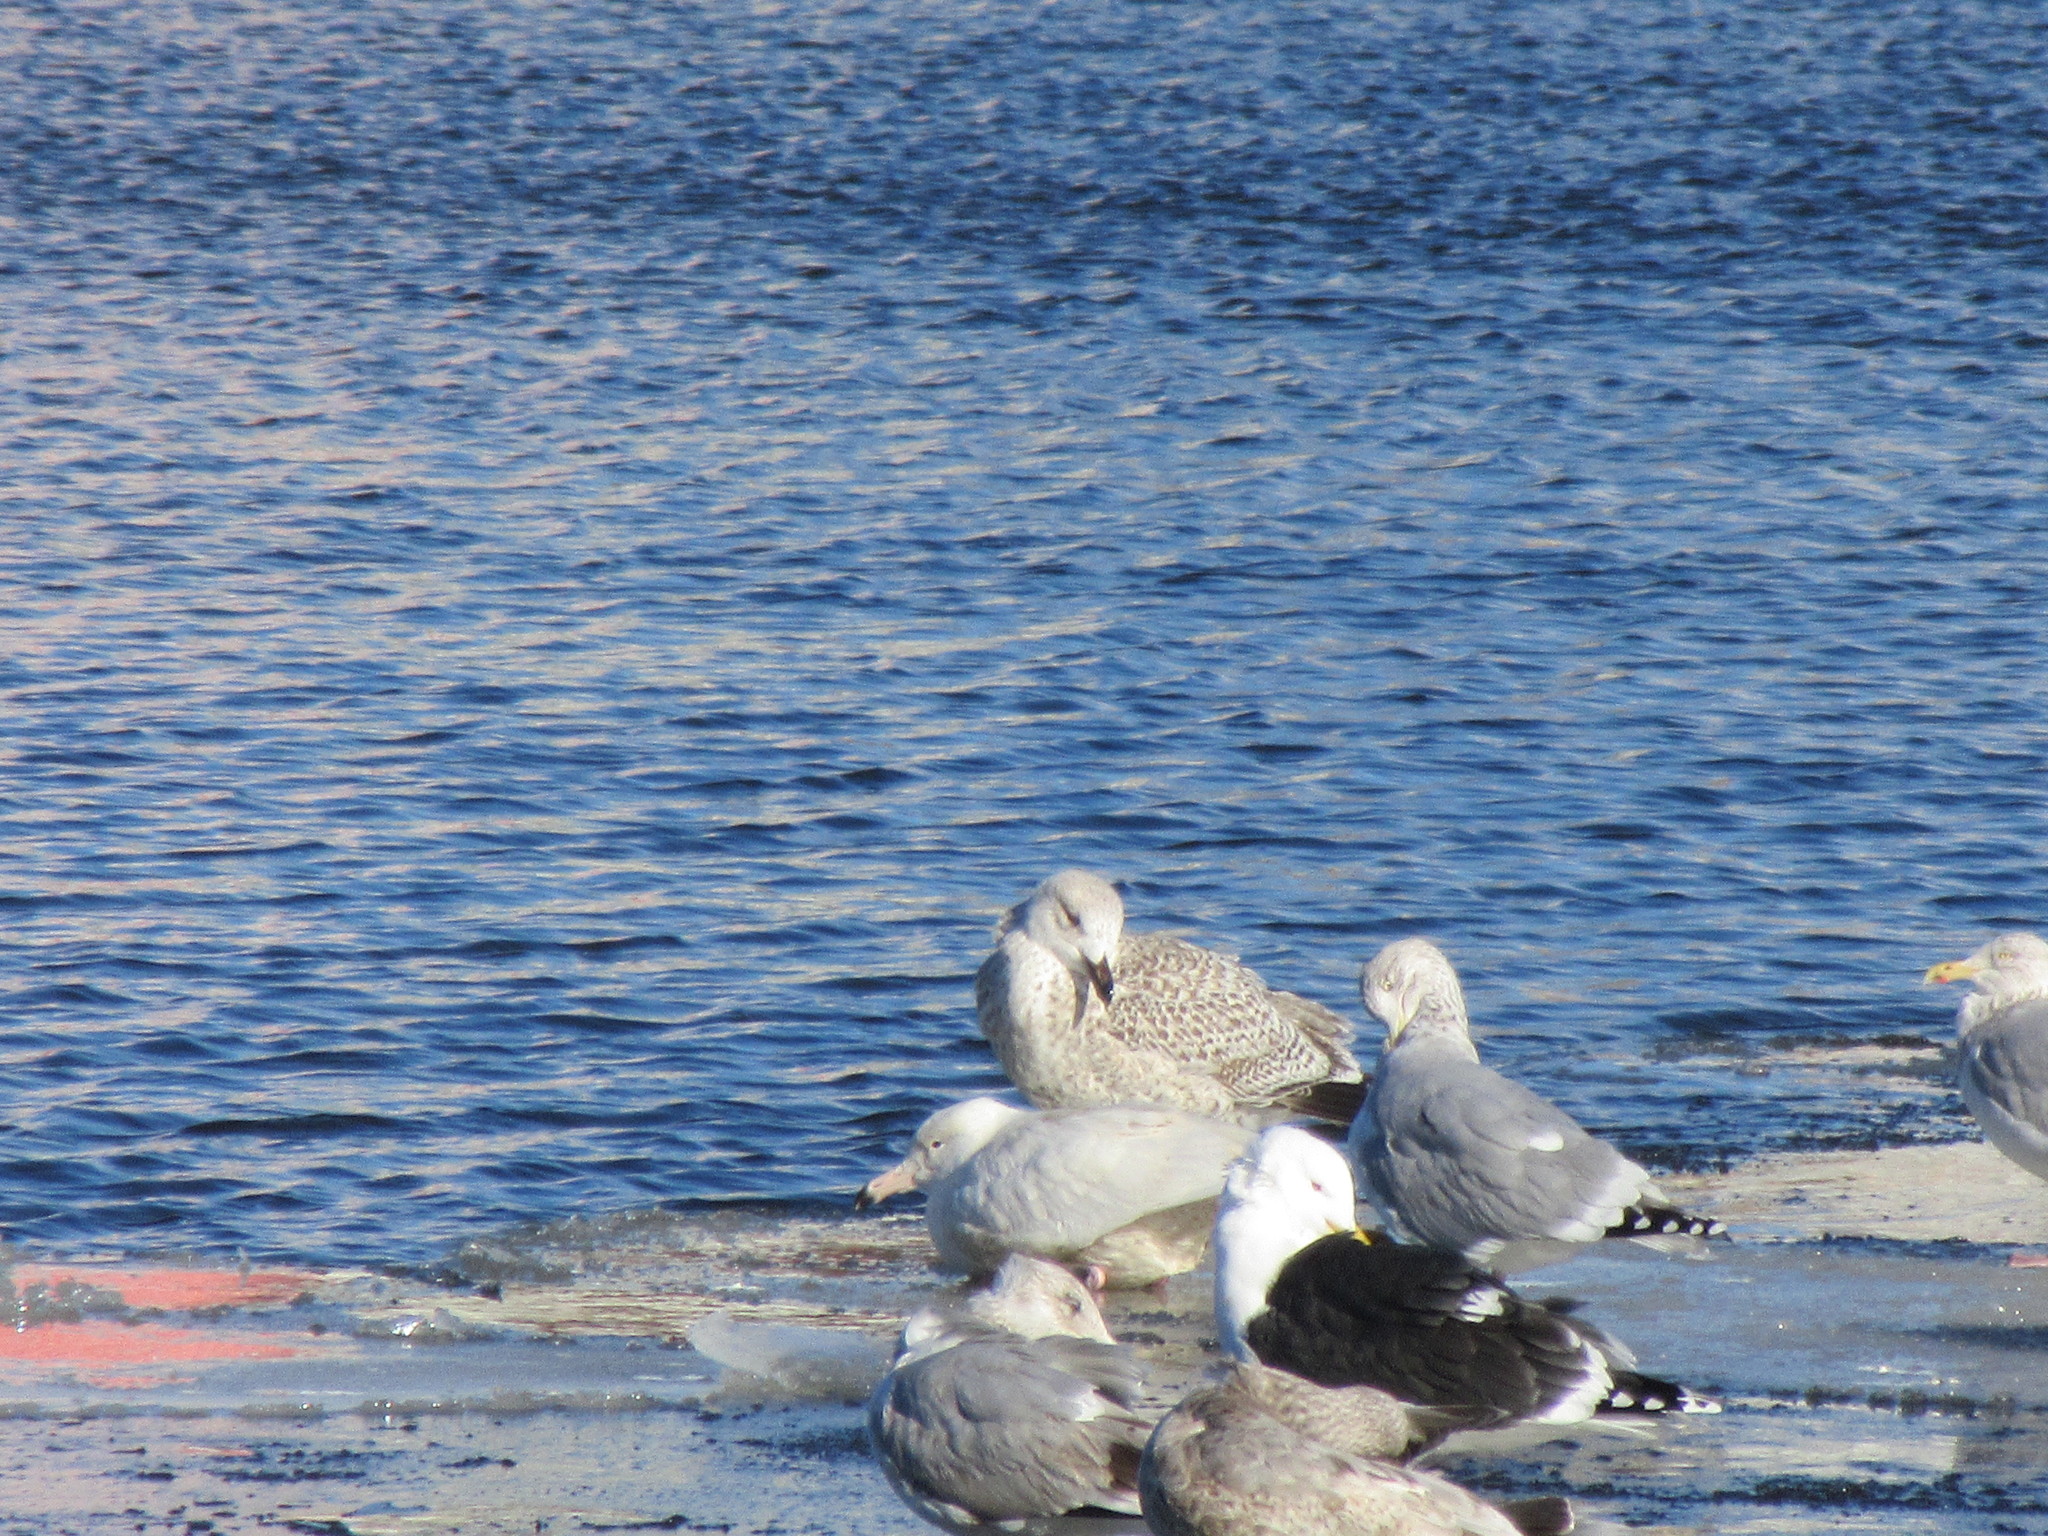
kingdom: Animalia
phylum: Chordata
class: Aves
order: Charadriiformes
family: Laridae
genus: Larus
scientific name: Larus hyperboreus
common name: Glaucous gull
